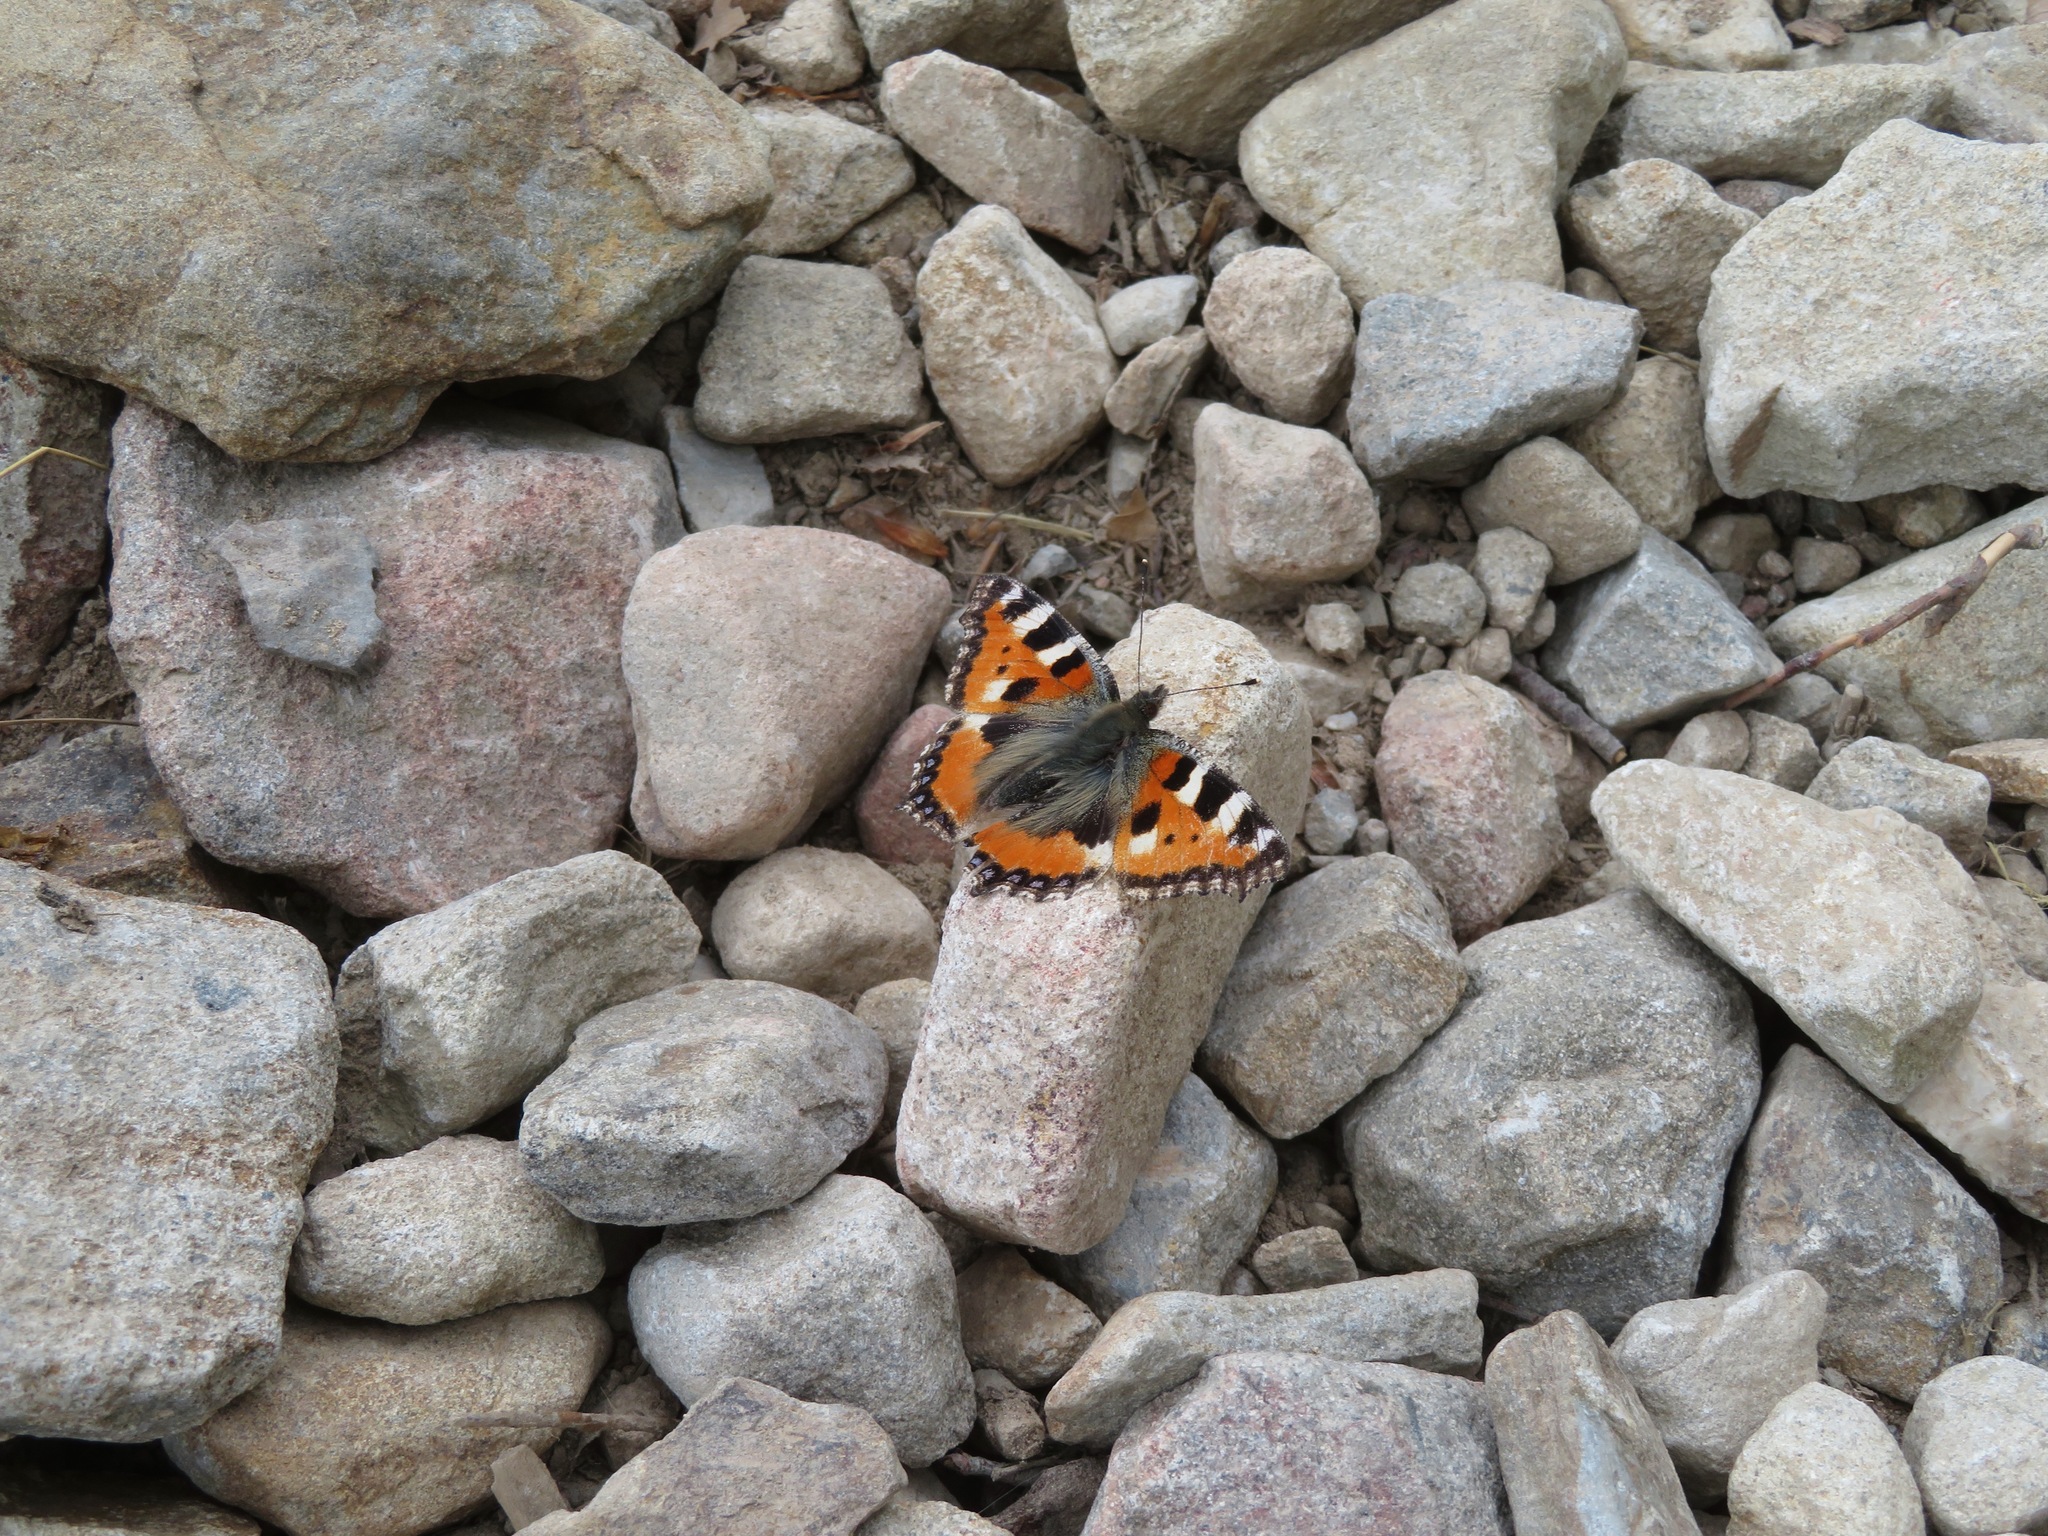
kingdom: Animalia
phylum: Arthropoda
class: Insecta
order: Lepidoptera
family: Nymphalidae
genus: Aglais
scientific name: Aglais urticae
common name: Small tortoiseshell
